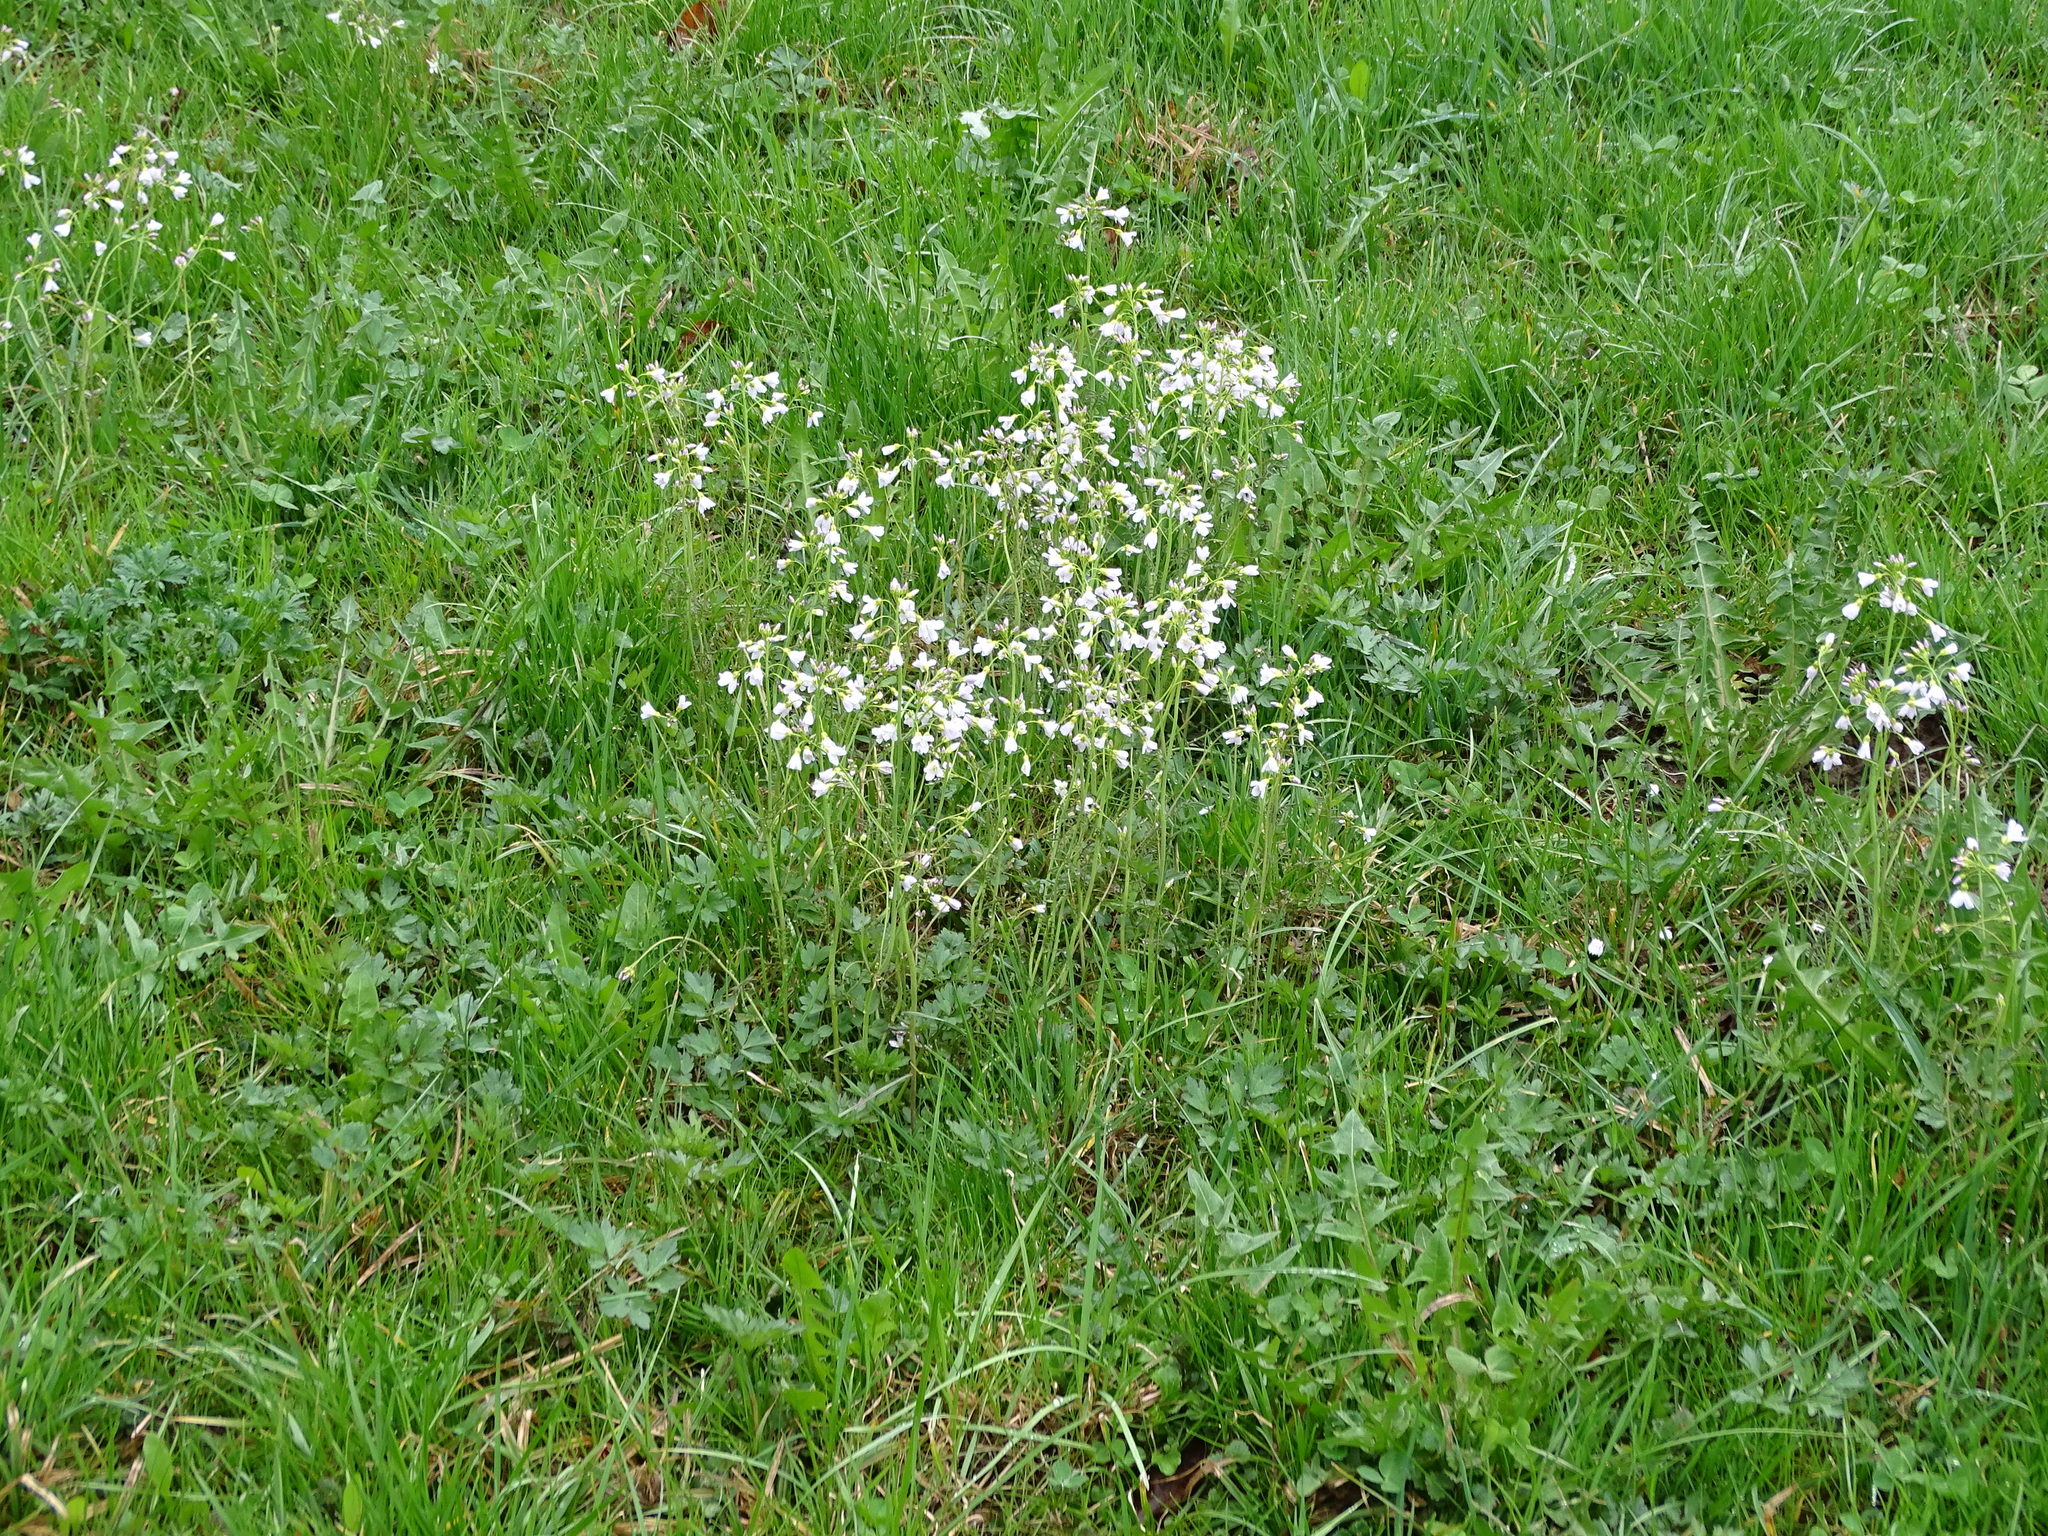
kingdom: Plantae
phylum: Tracheophyta
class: Magnoliopsida
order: Brassicales
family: Brassicaceae
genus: Cardamine
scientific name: Cardamine pratensis
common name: Cuckoo flower
